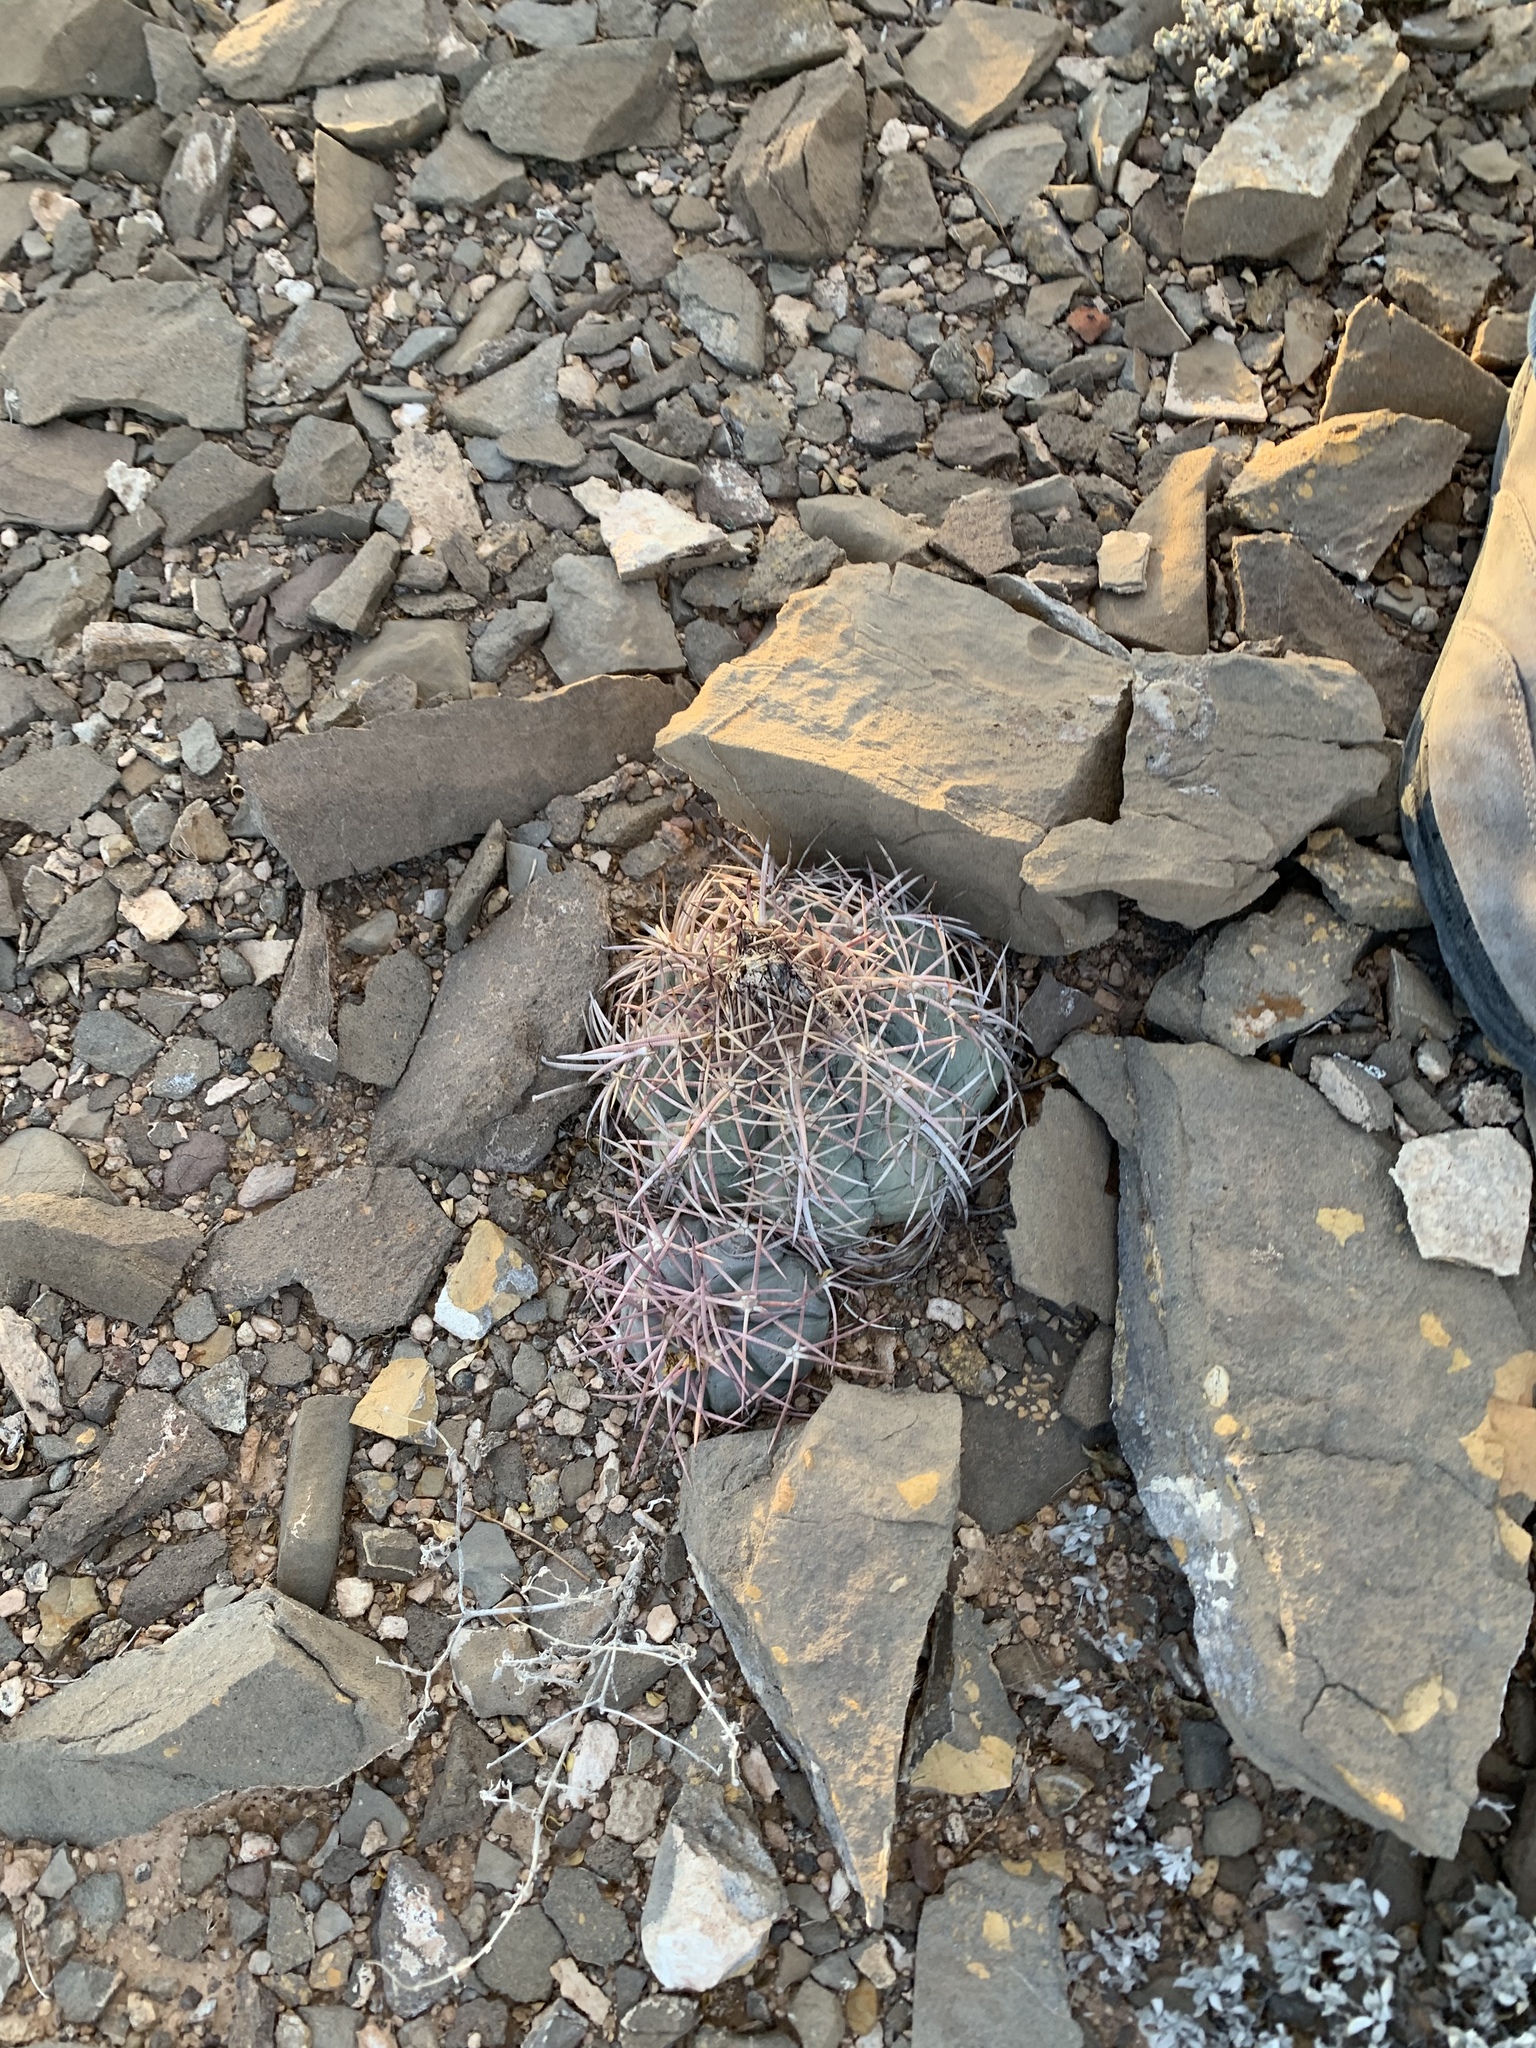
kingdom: Plantae
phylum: Tracheophyta
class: Magnoliopsida
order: Caryophyllales
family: Cactaceae
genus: Echinocactus
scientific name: Echinocactus horizonthalonius
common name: Devilshead
